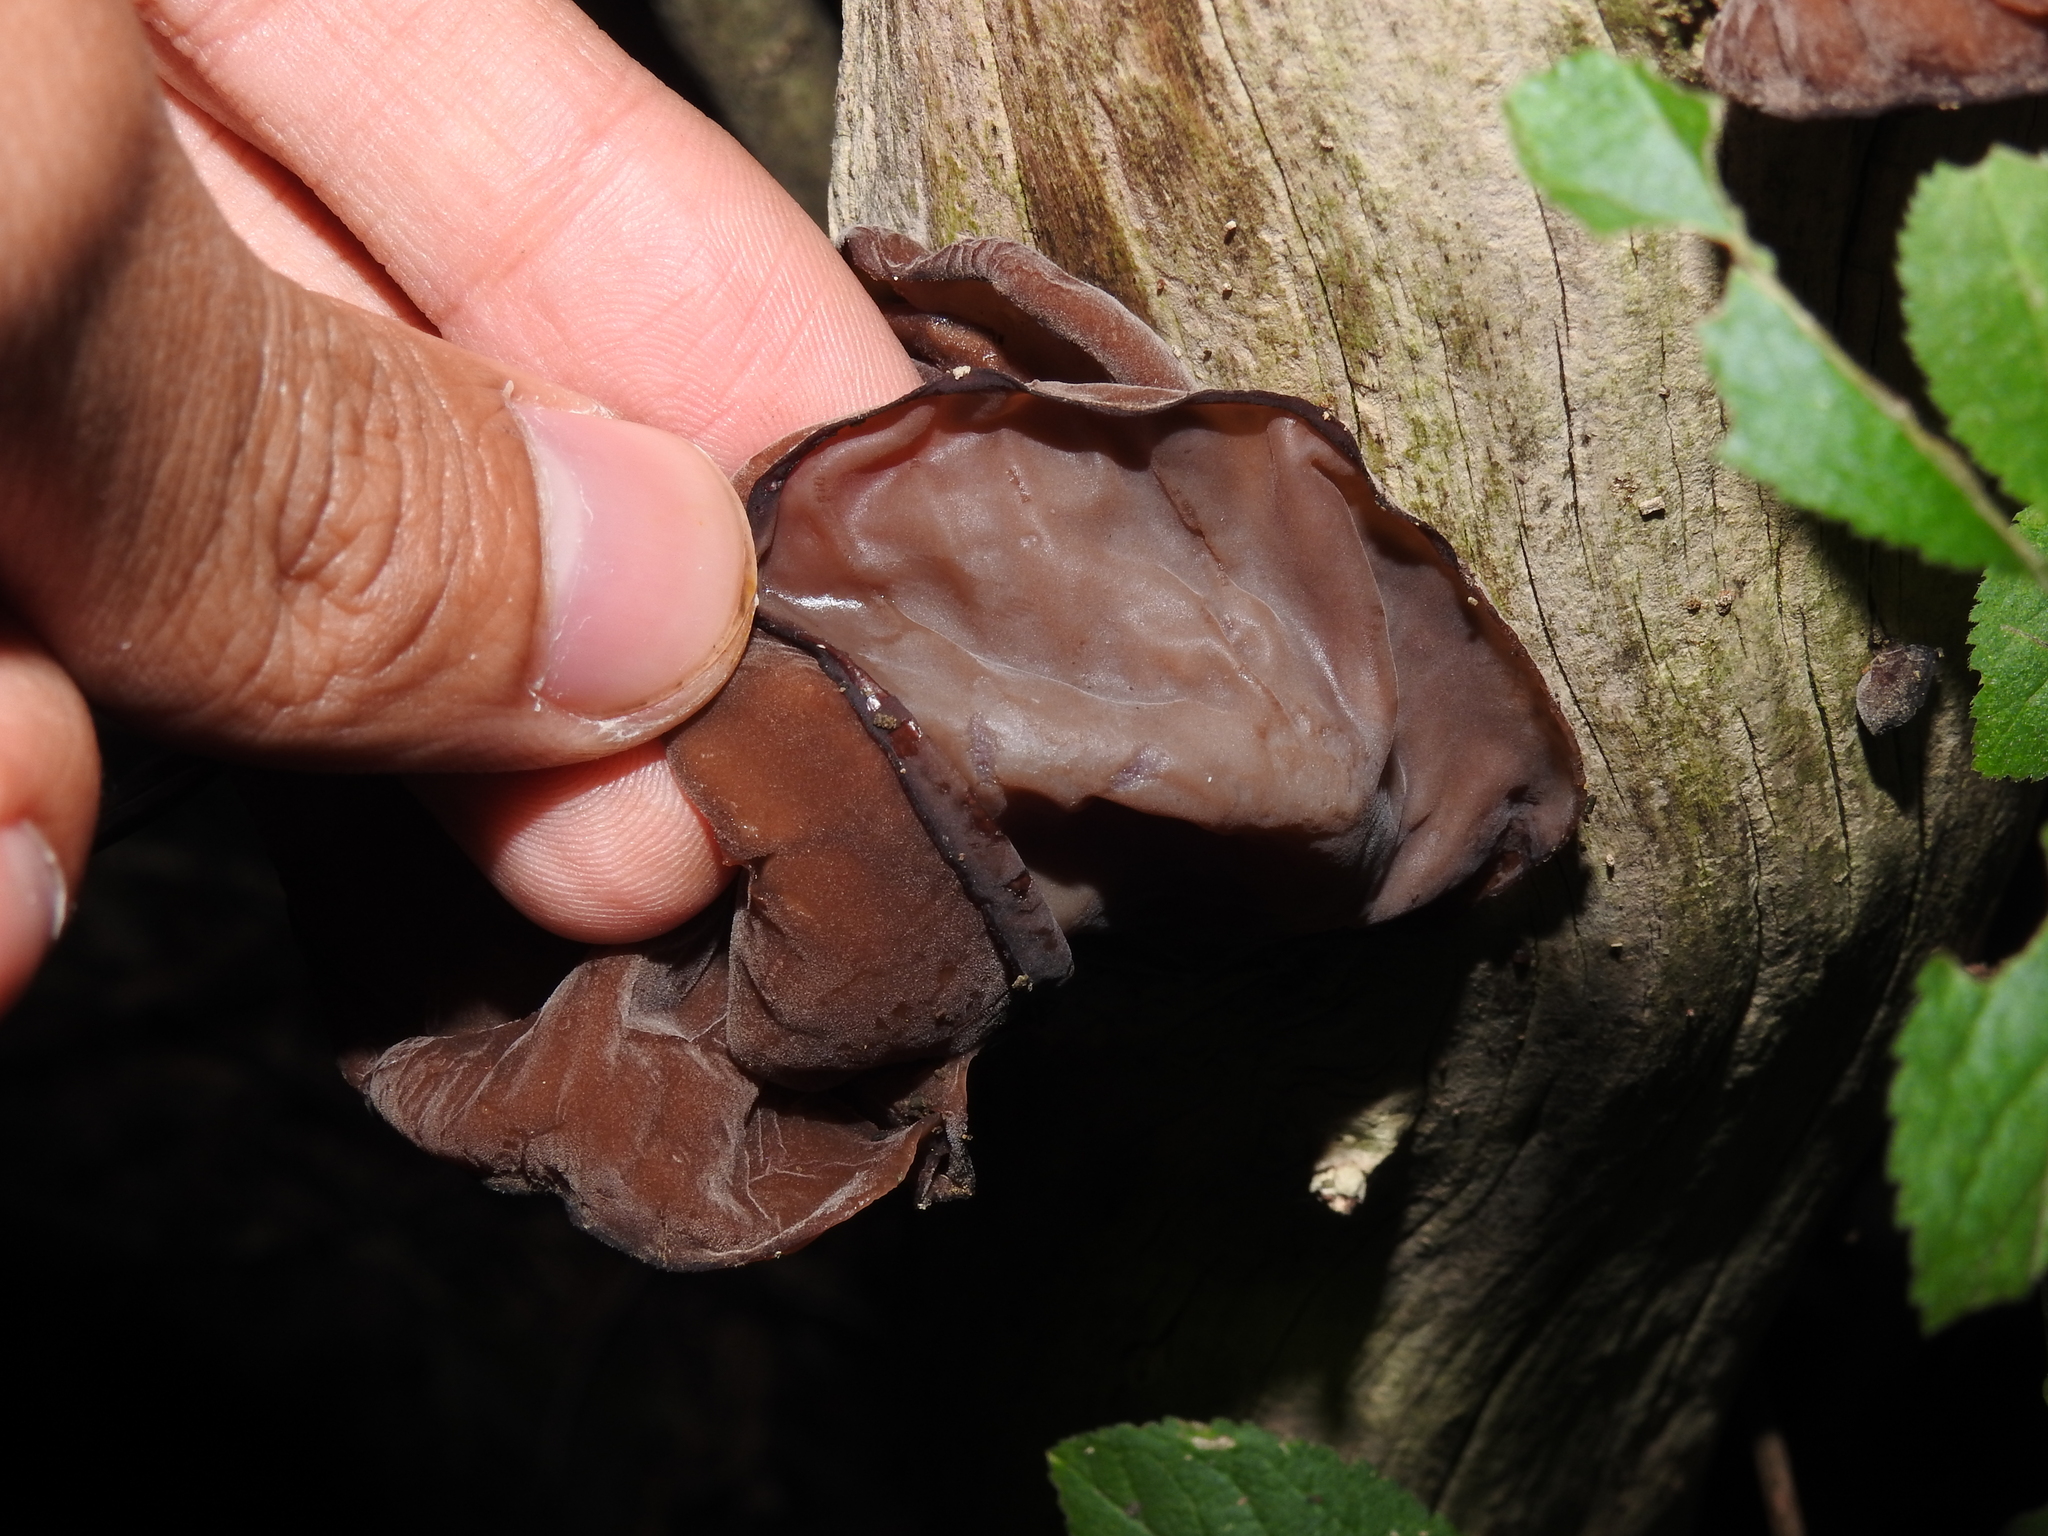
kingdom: Fungi
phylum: Basidiomycota
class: Agaricomycetes
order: Auriculariales
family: Auriculariaceae
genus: Auricularia
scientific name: Auricularia auricula-judae
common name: Jelly ear
